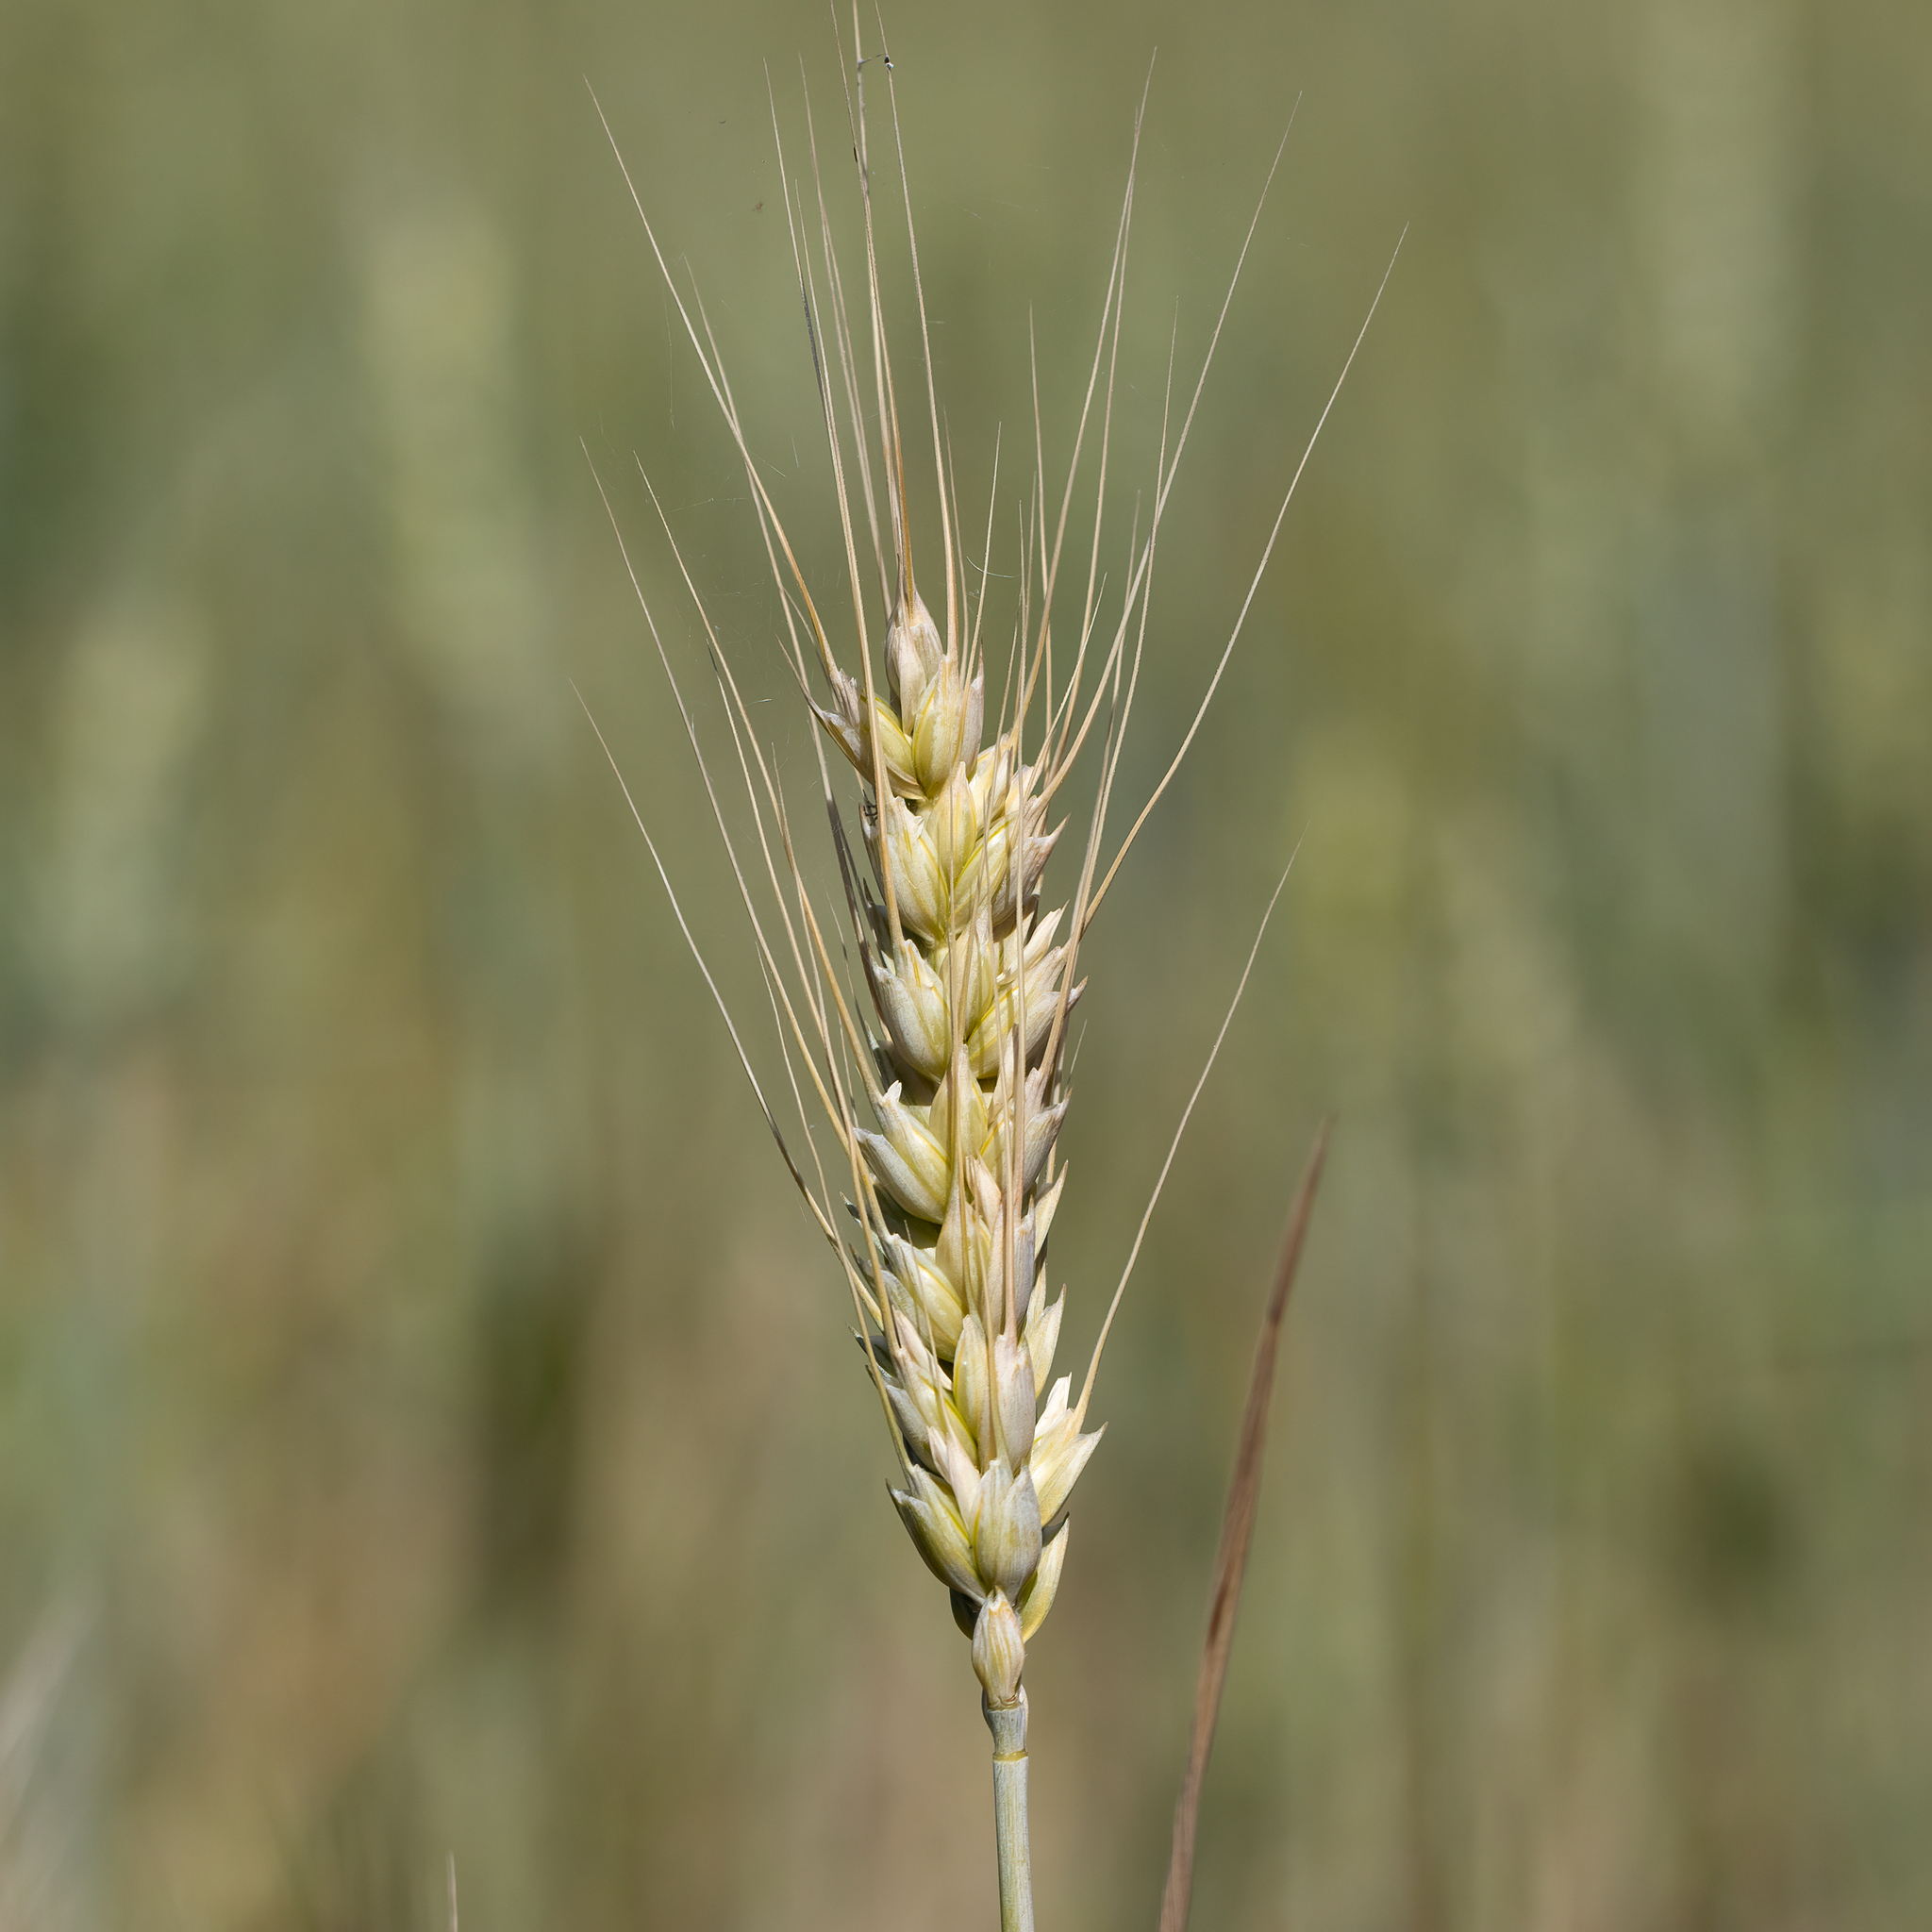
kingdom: Plantae
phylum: Tracheophyta
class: Liliopsida
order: Poales
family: Poaceae
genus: Triticum
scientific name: Triticum aestivum
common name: Common wheat
